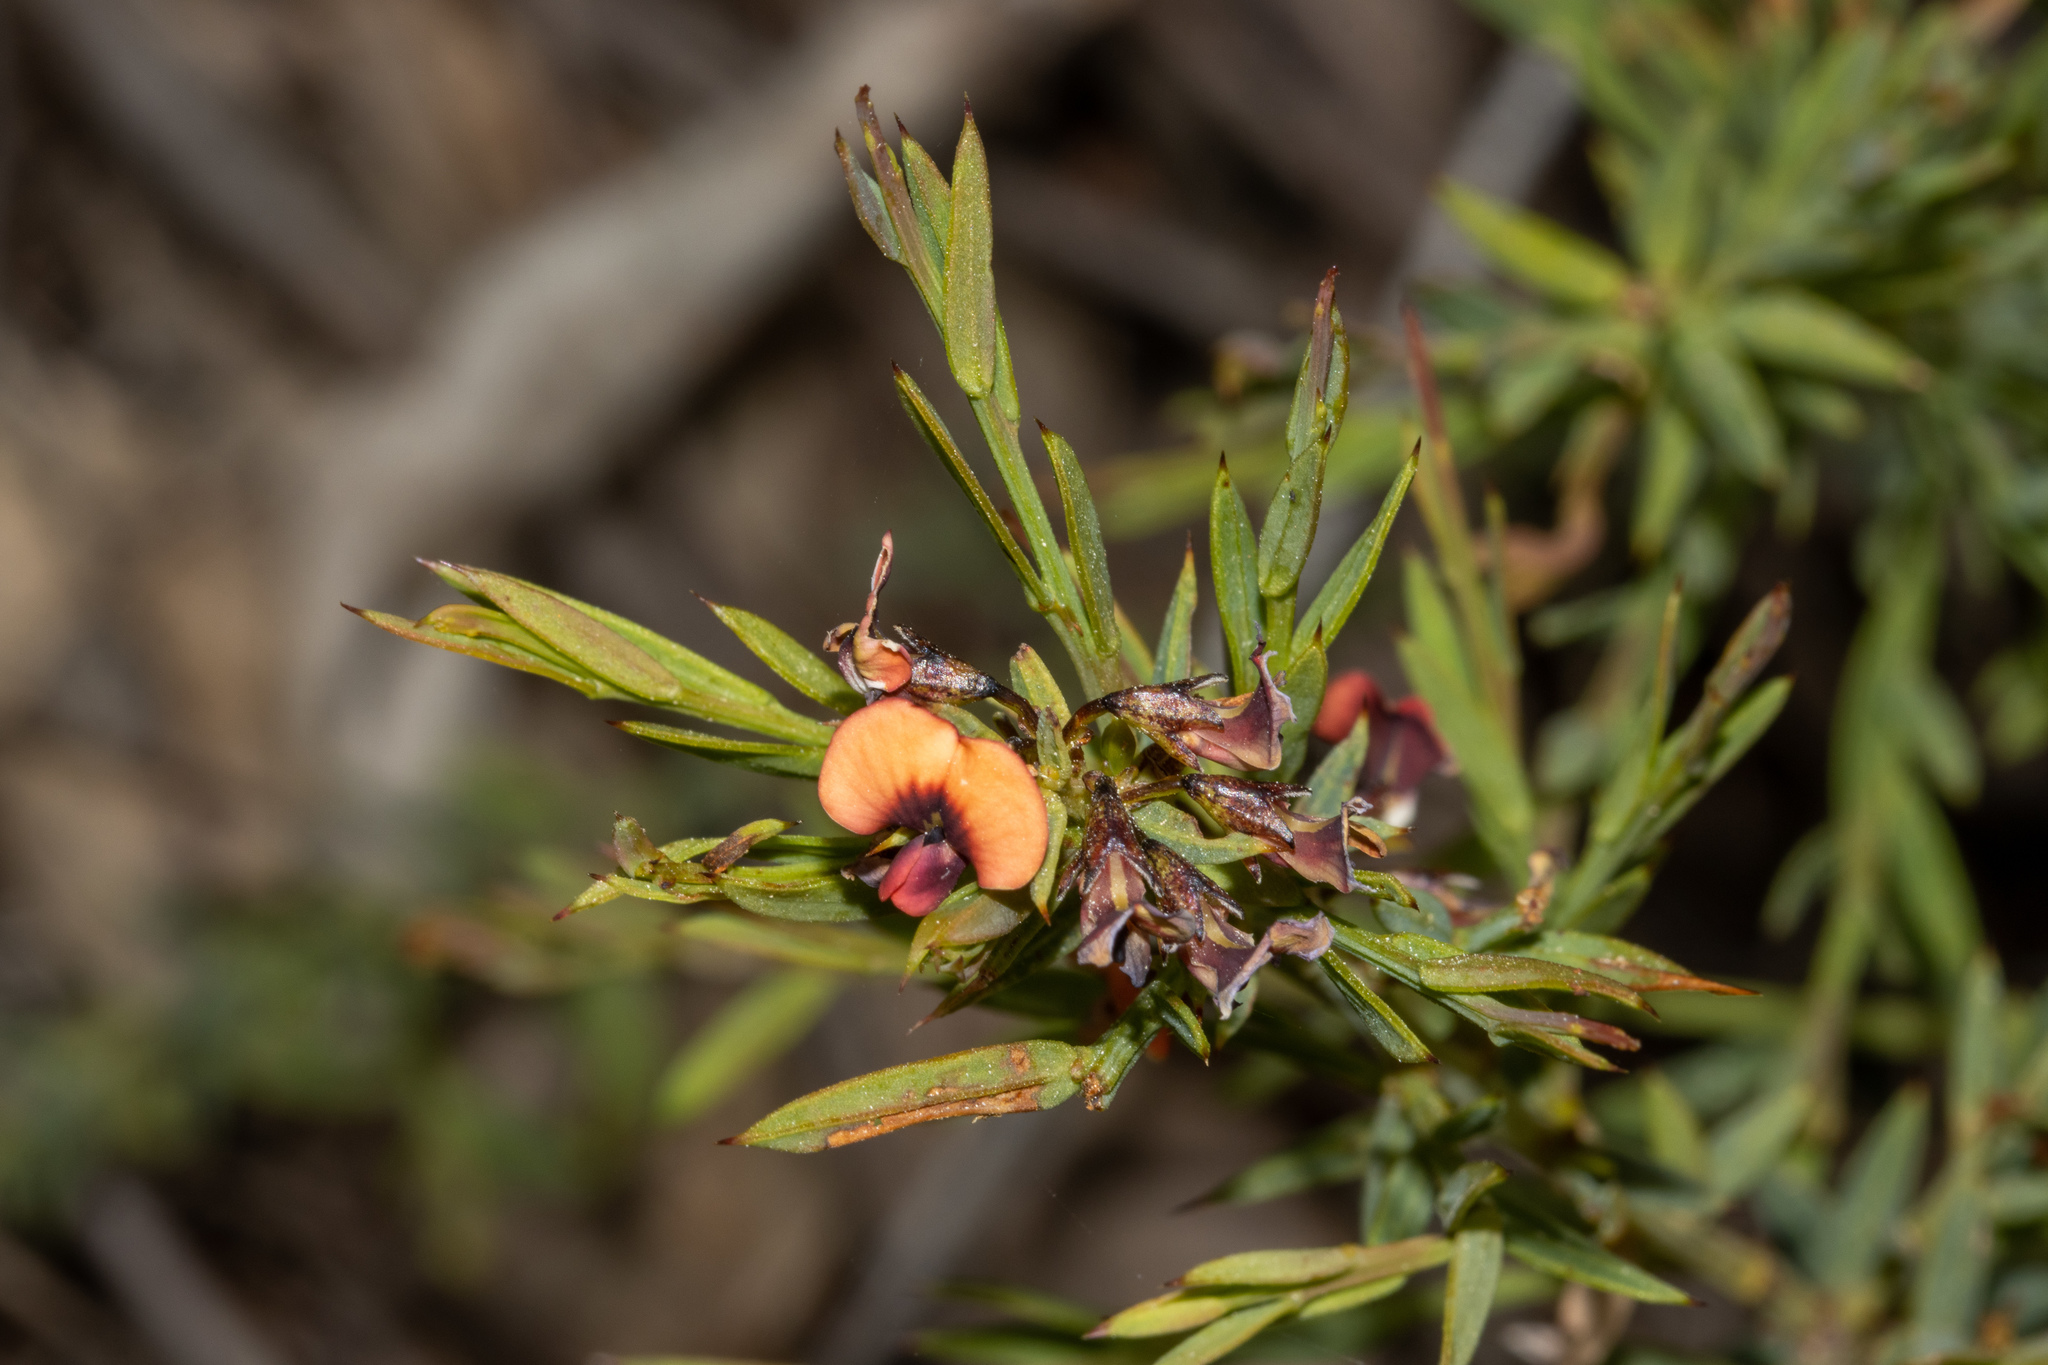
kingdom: Plantae
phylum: Tracheophyta
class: Magnoliopsida
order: Fabales
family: Fabaceae
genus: Daviesia
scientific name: Daviesia ulicifolia
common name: Gorse bitter-pea
